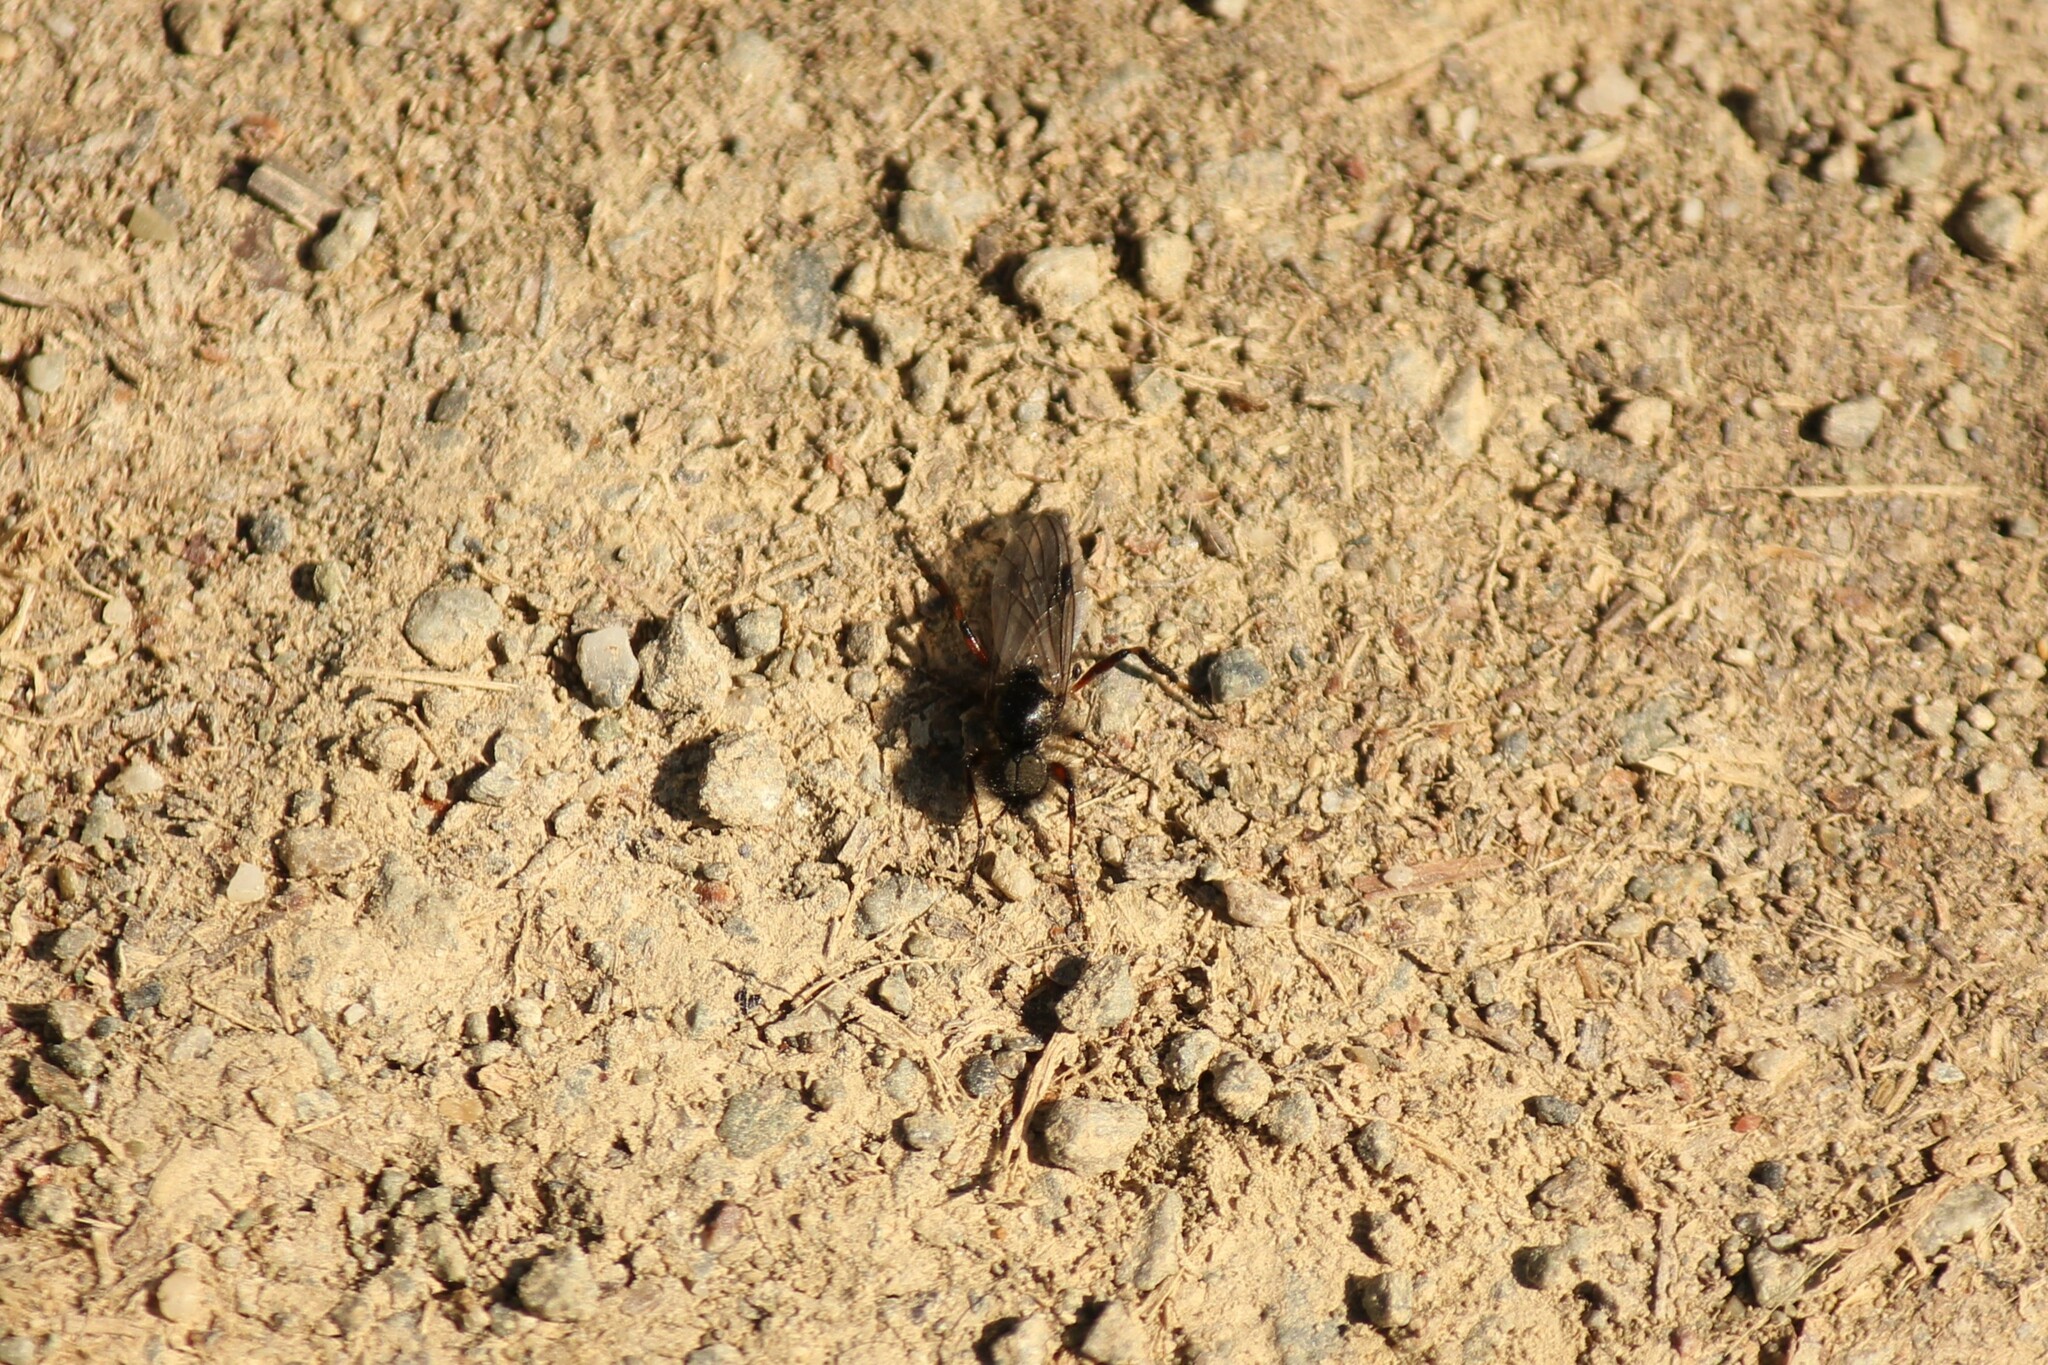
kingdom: Animalia
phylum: Arthropoda
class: Insecta
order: Diptera
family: Bibionidae
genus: Bibio
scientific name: Bibio xanthopus
